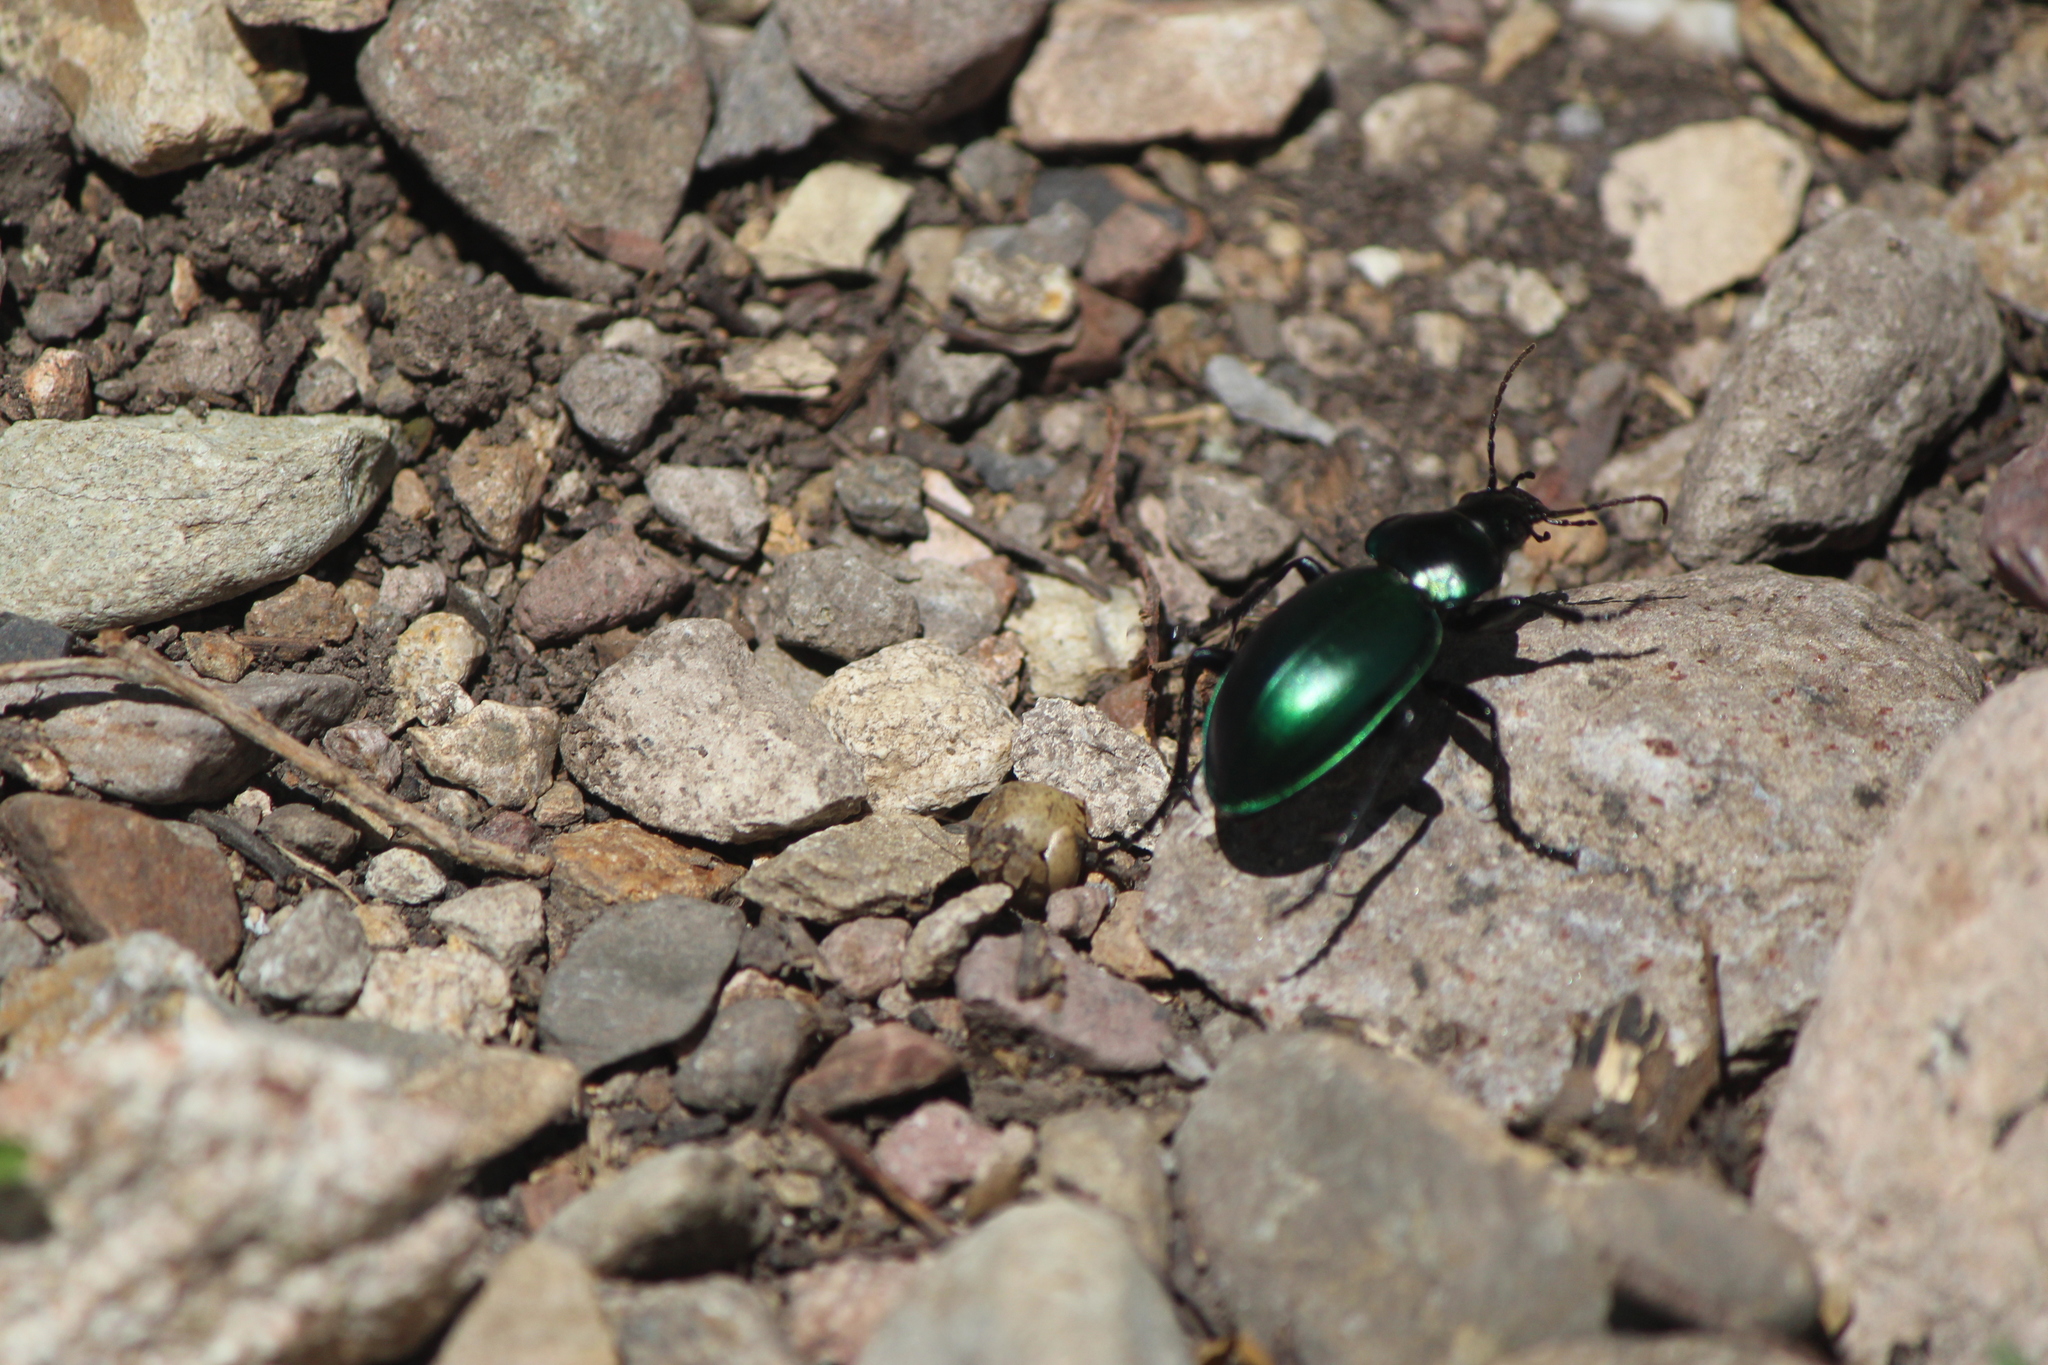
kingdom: Animalia
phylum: Arthropoda
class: Insecta
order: Coleoptera
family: Carabidae
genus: Calosoma
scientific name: Calosoma atrovirens
